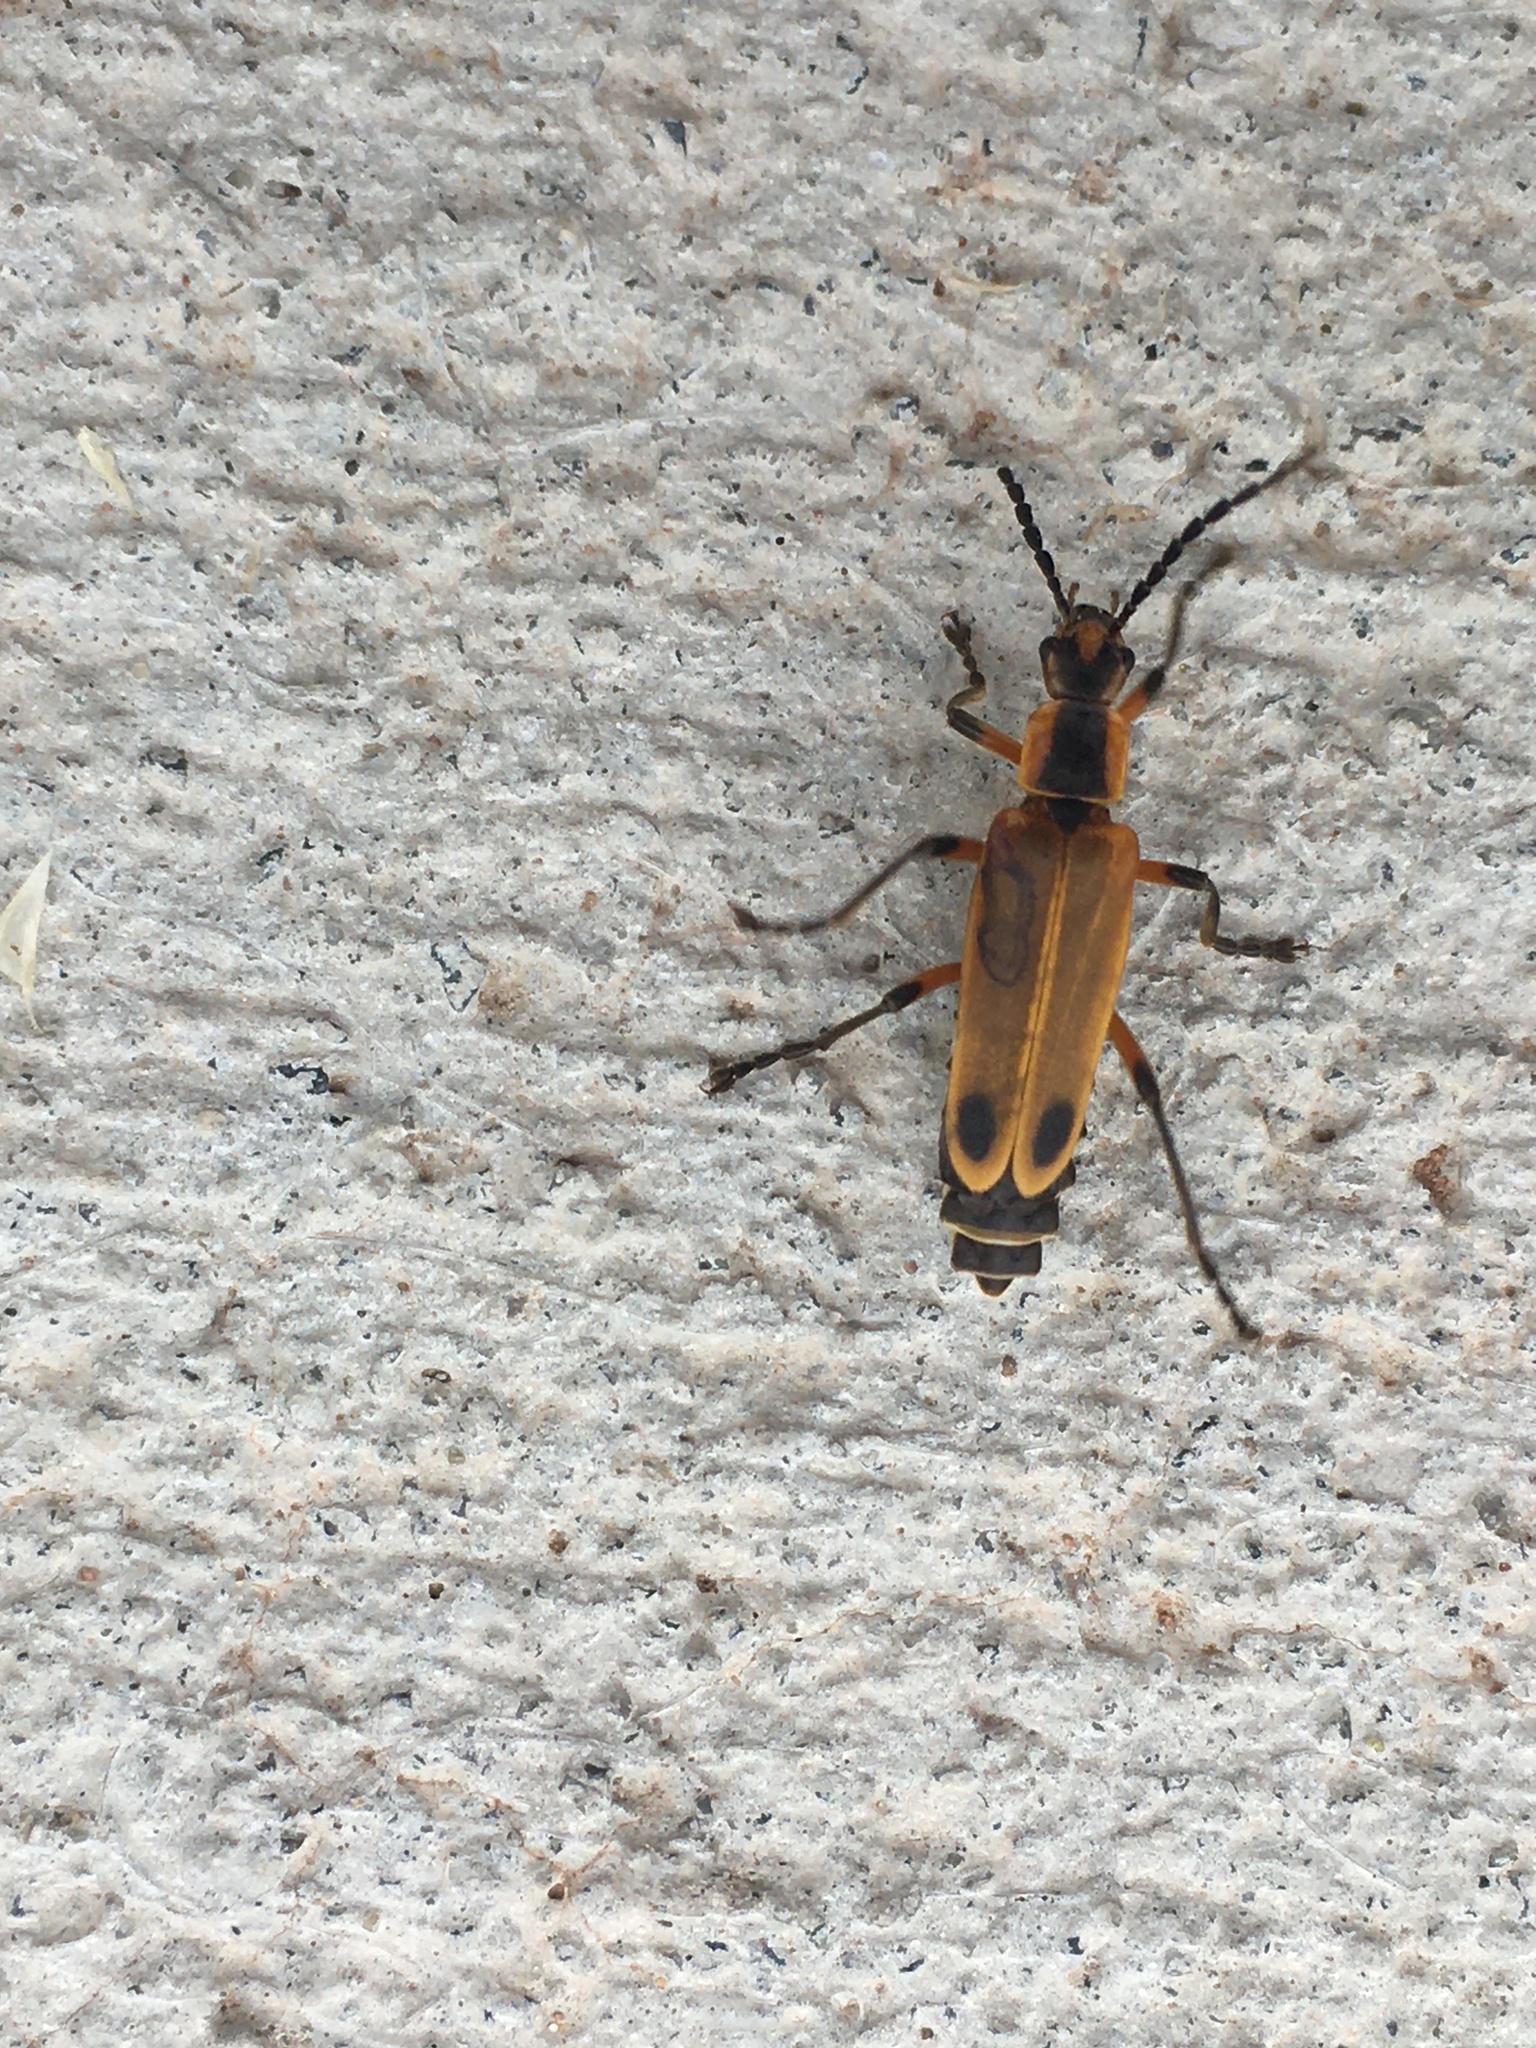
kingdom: Animalia
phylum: Arthropoda
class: Insecta
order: Coleoptera
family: Cantharidae
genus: Chauliognathus
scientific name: Chauliognathus marginatus
